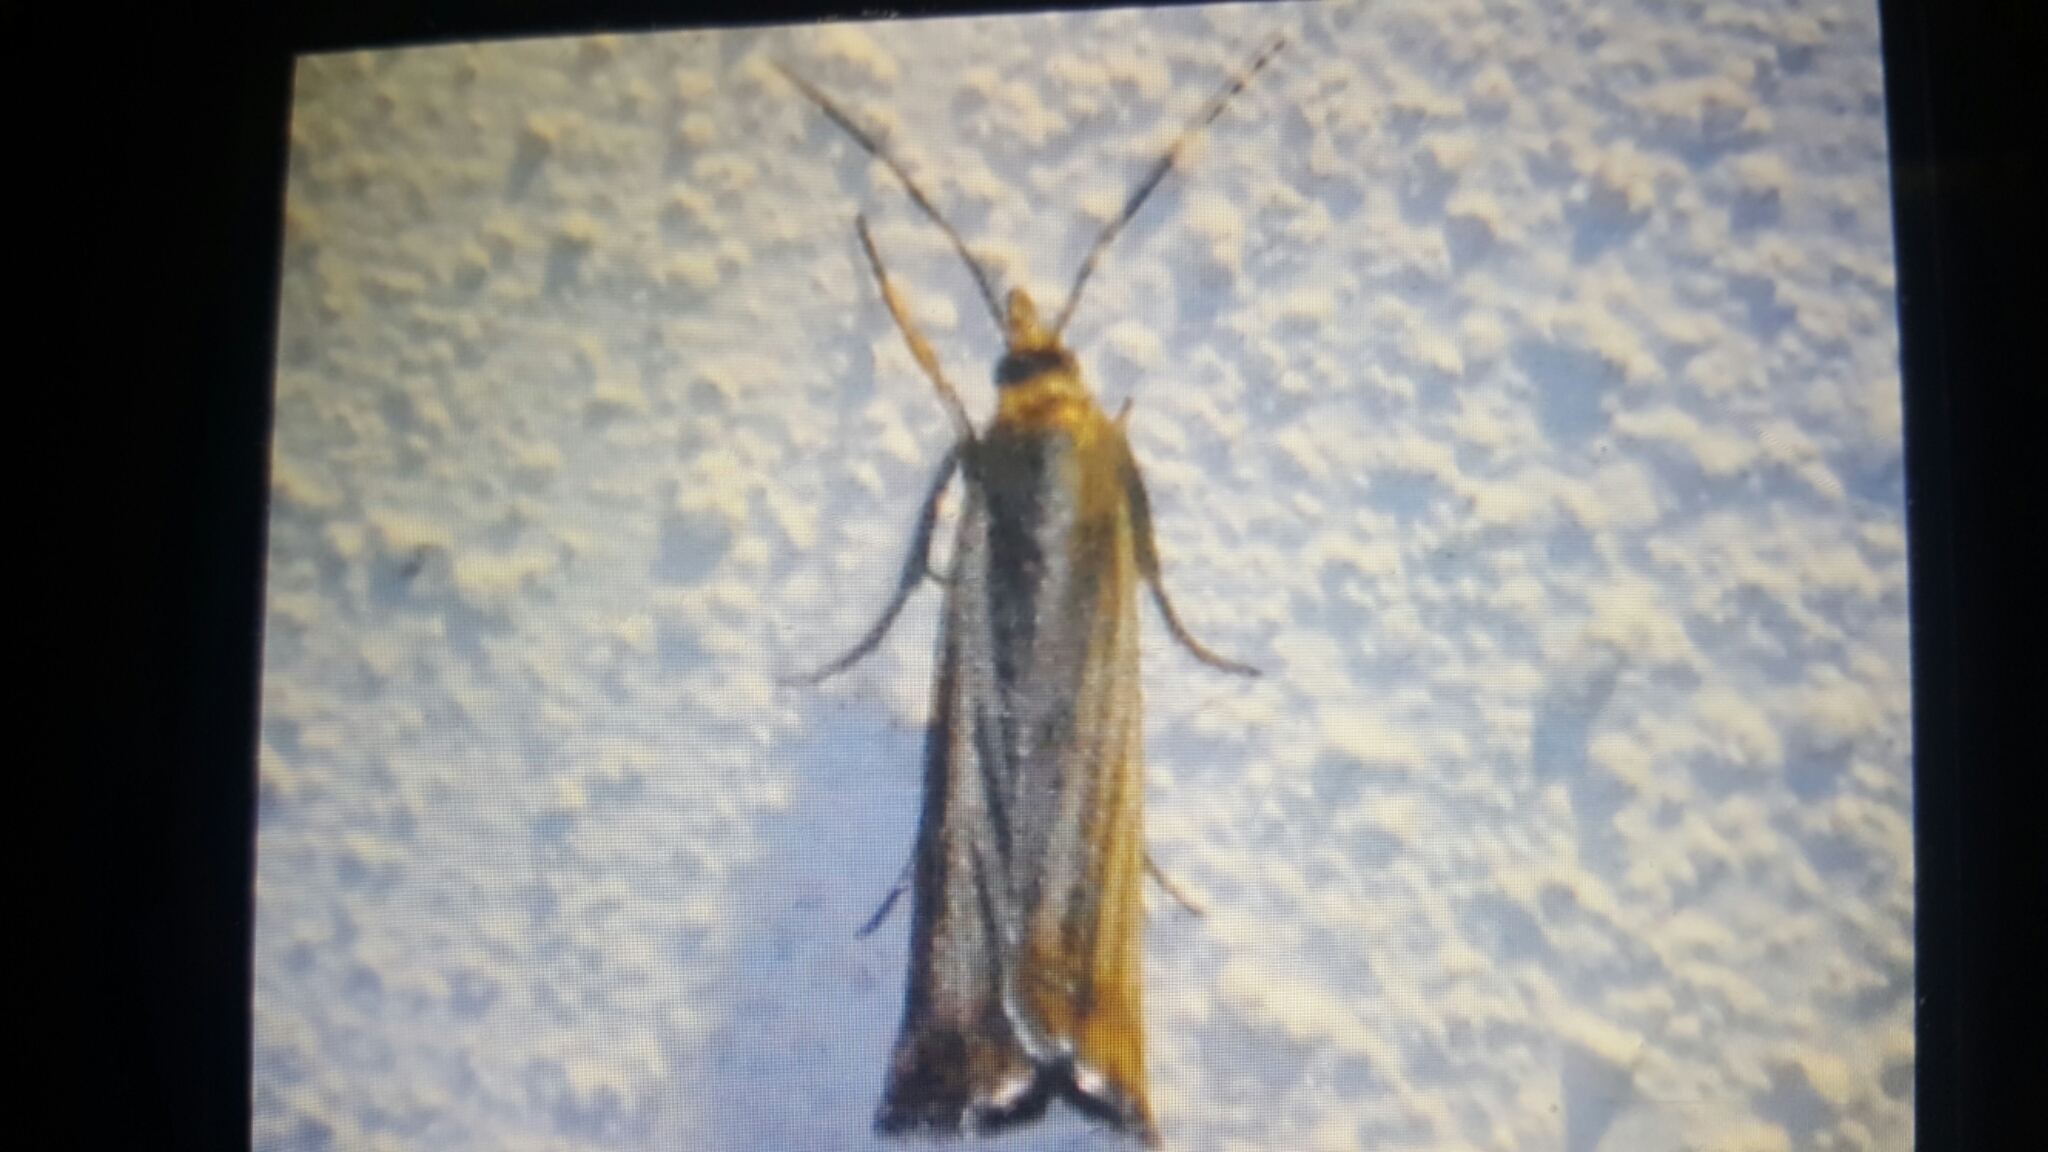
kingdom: Animalia
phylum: Arthropoda
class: Insecta
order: Lepidoptera
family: Crambidae
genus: Chrysoteuchia
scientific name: Chrysoteuchia culmella
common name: Garden grass-veneer
